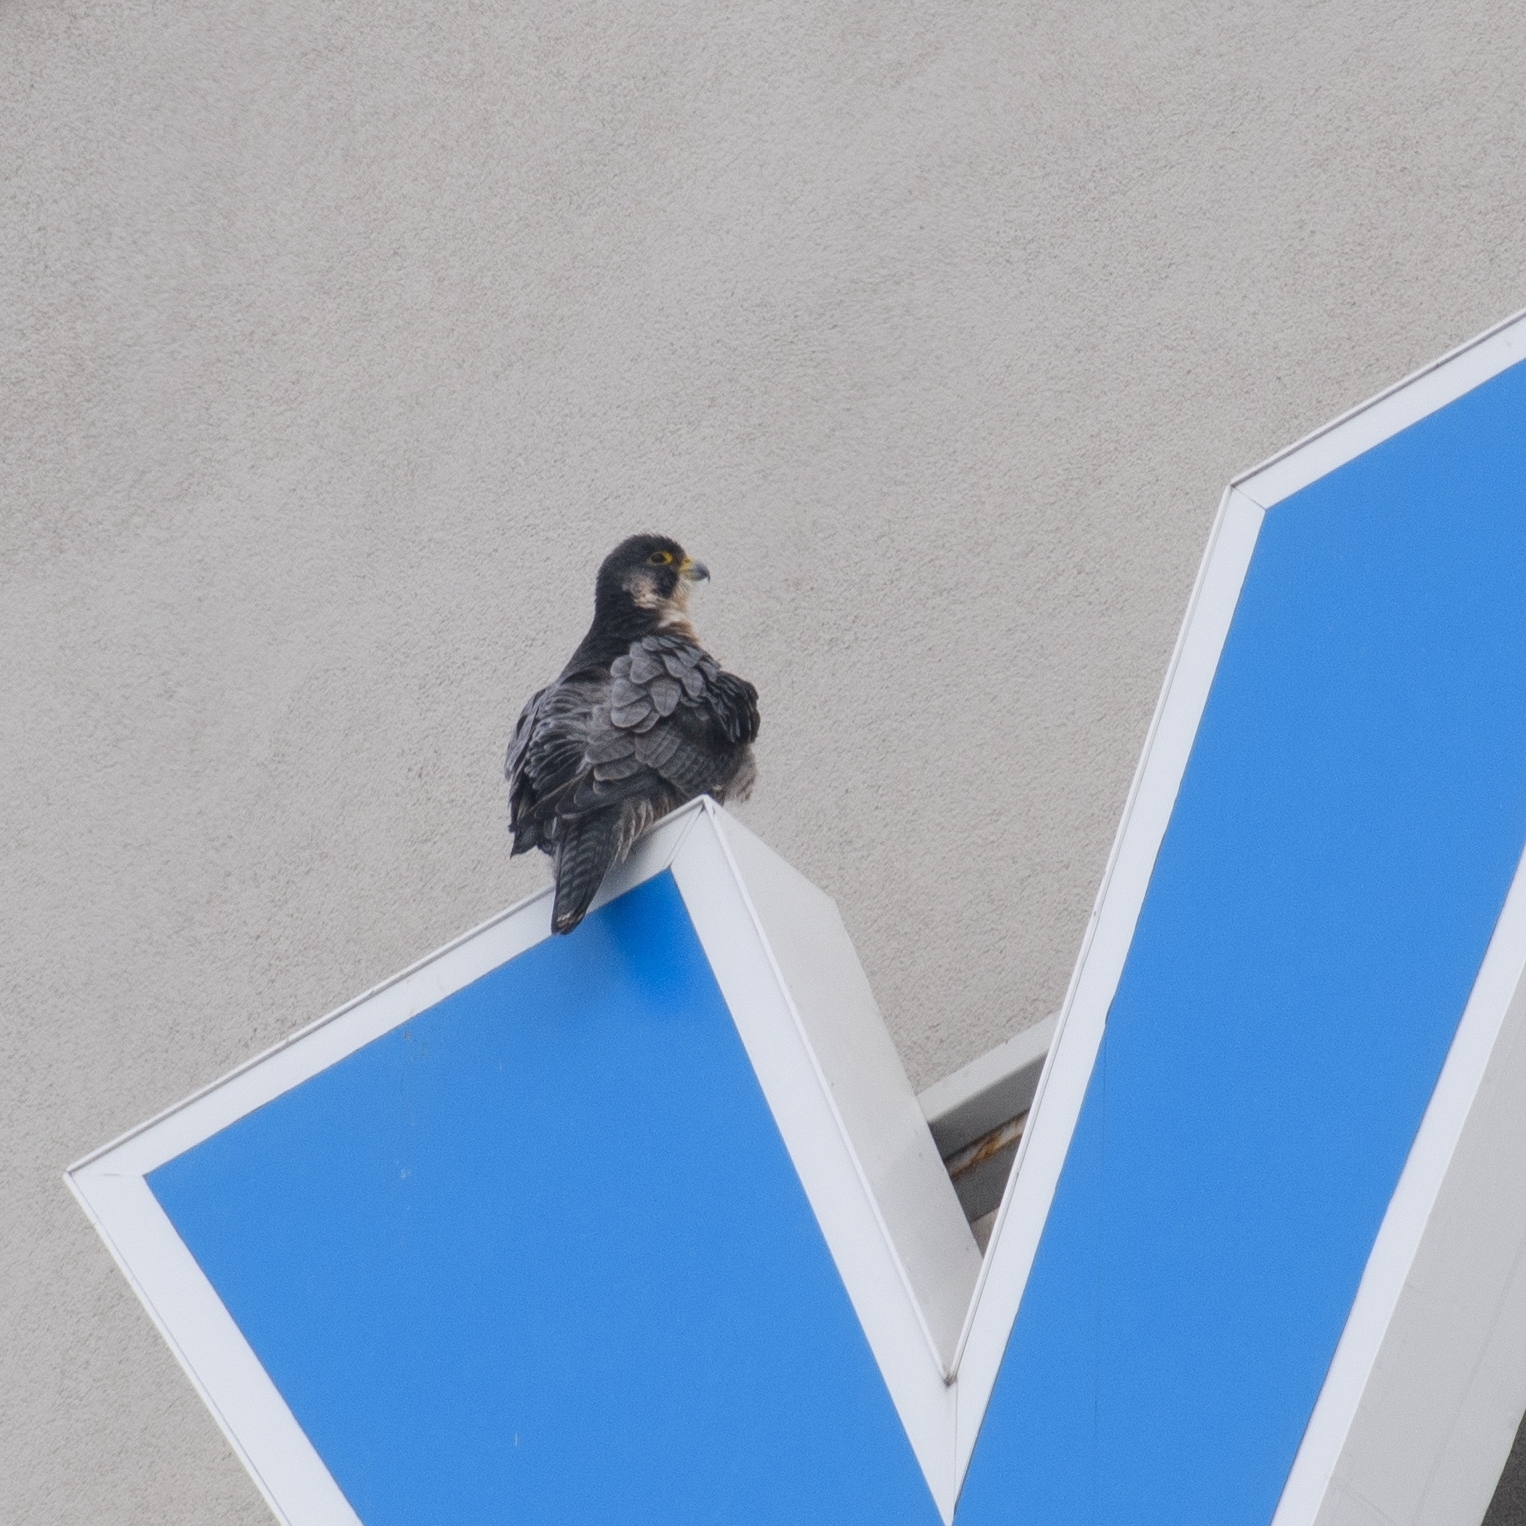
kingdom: Animalia
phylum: Chordata
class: Aves
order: Falconiformes
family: Falconidae
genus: Falco
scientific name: Falco peregrinus
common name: Peregrine falcon
